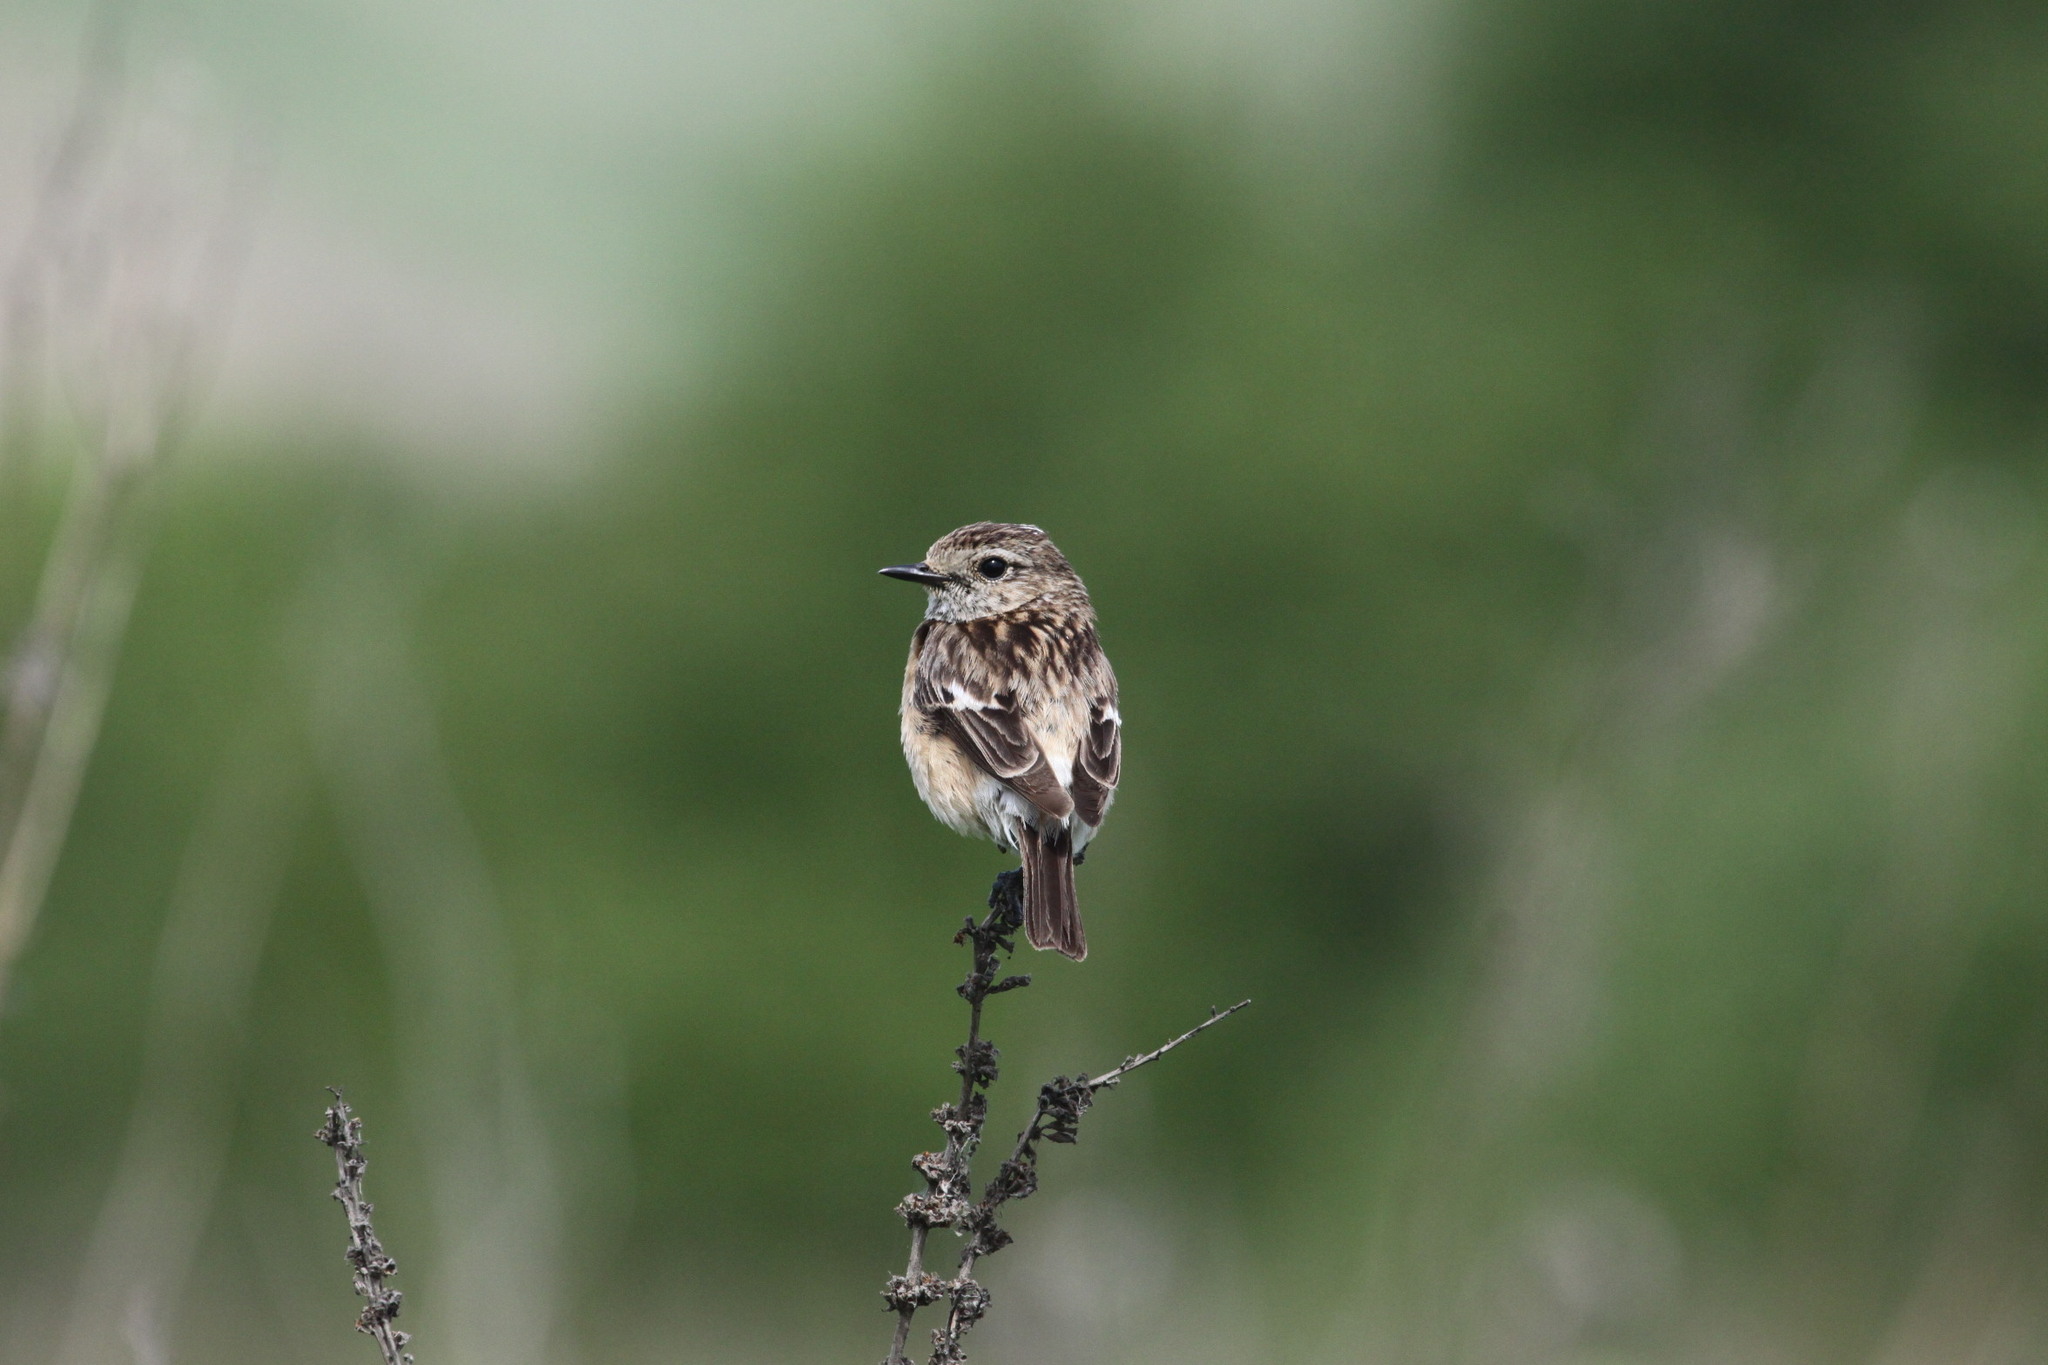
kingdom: Animalia
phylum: Chordata
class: Aves
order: Passeriformes
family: Muscicapidae
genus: Saxicola
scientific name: Saxicola maurus
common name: Siberian stonechat
